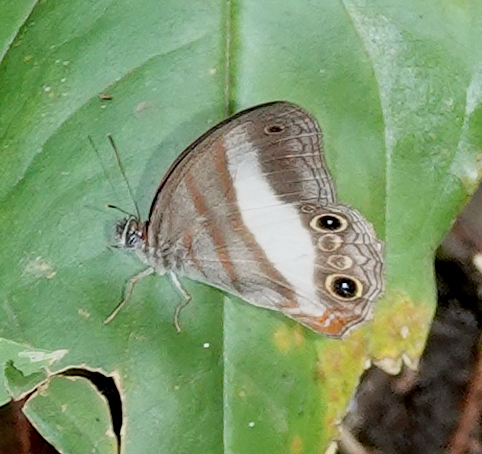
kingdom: Animalia
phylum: Arthropoda
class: Insecta
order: Lepidoptera
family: Nymphalidae
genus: Pareuptychia
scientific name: Pareuptychia metaleuca
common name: White-banded satyr
